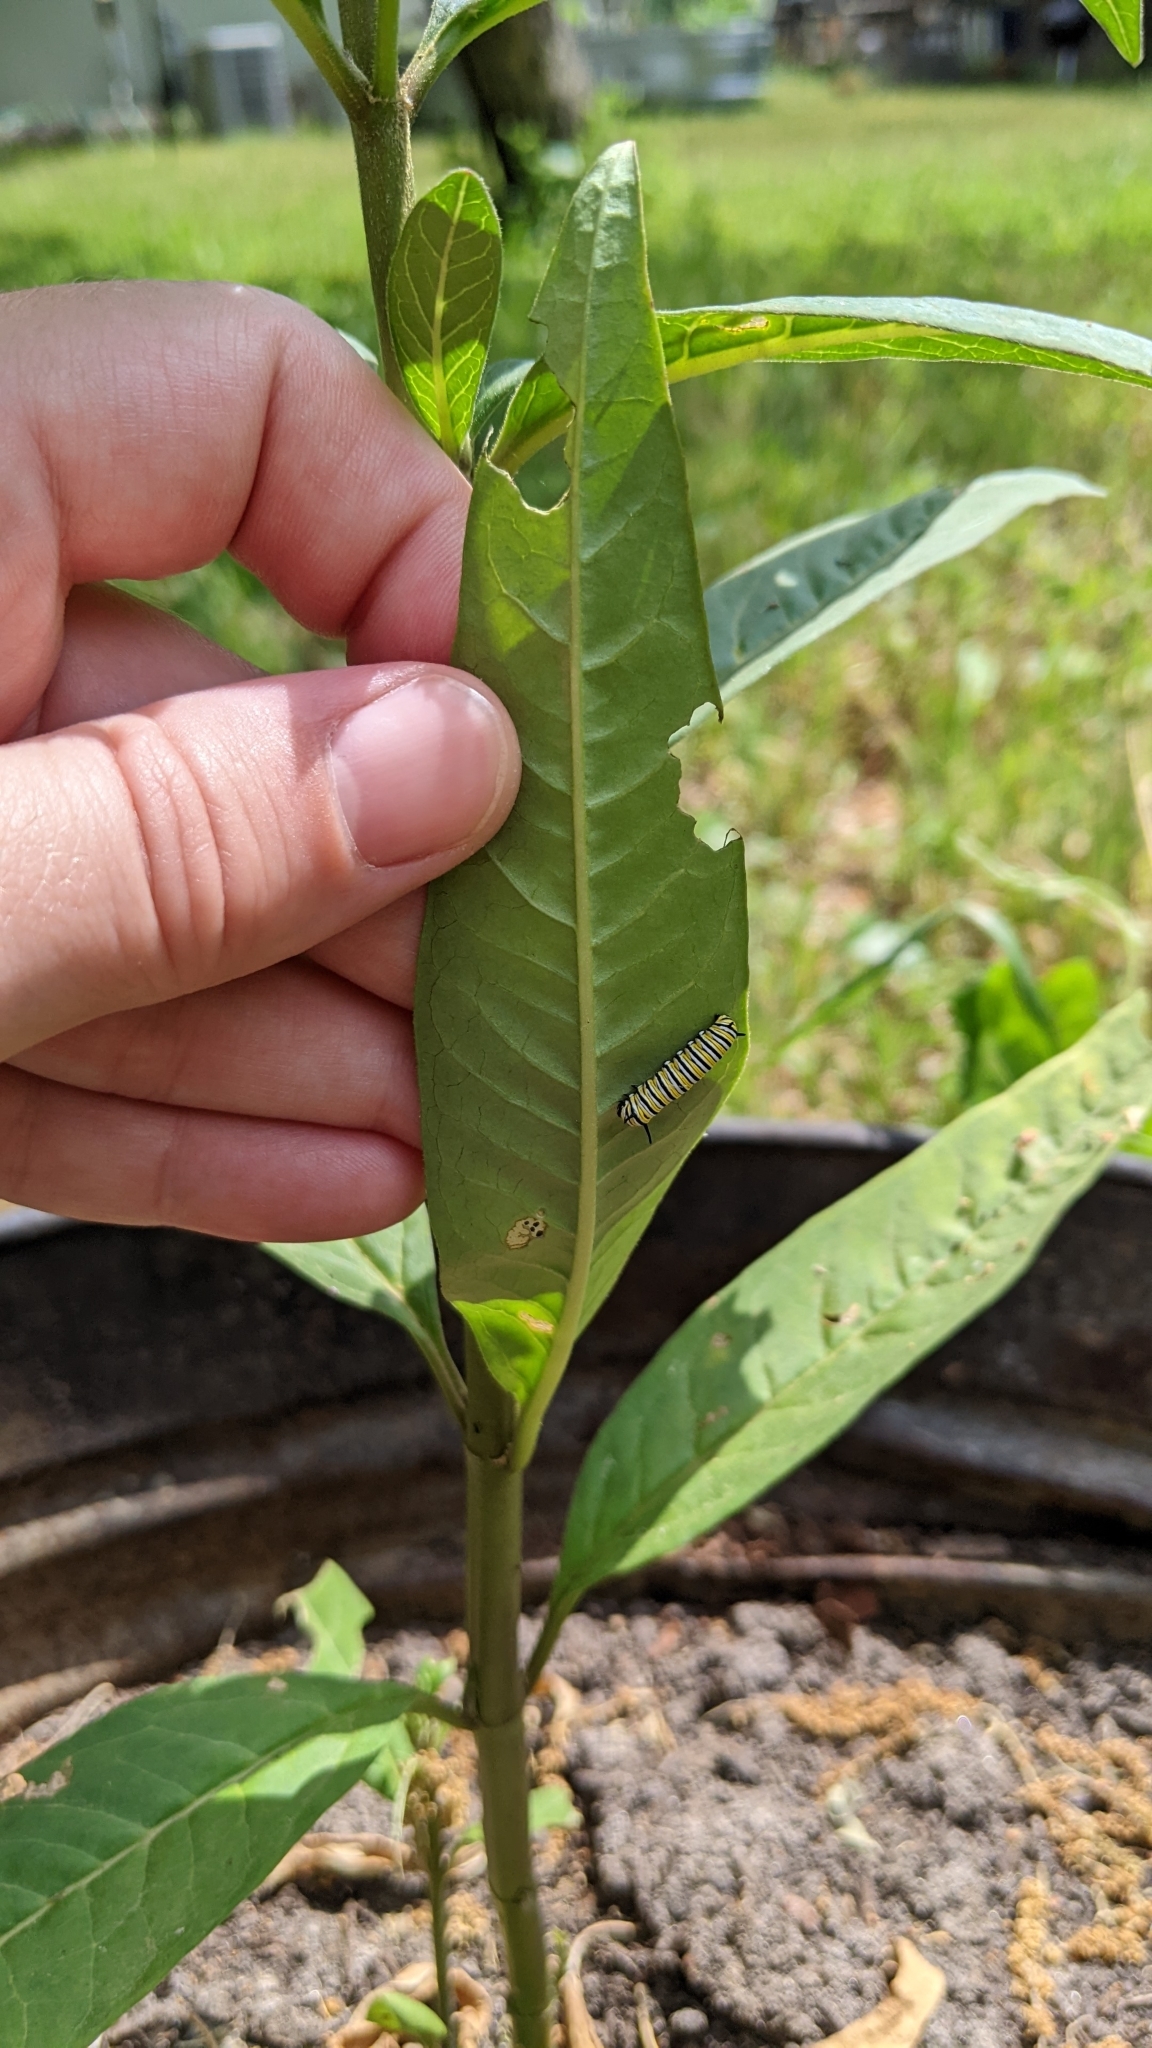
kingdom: Animalia
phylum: Arthropoda
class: Insecta
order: Lepidoptera
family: Nymphalidae
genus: Danaus
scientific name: Danaus plexippus
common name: Monarch
